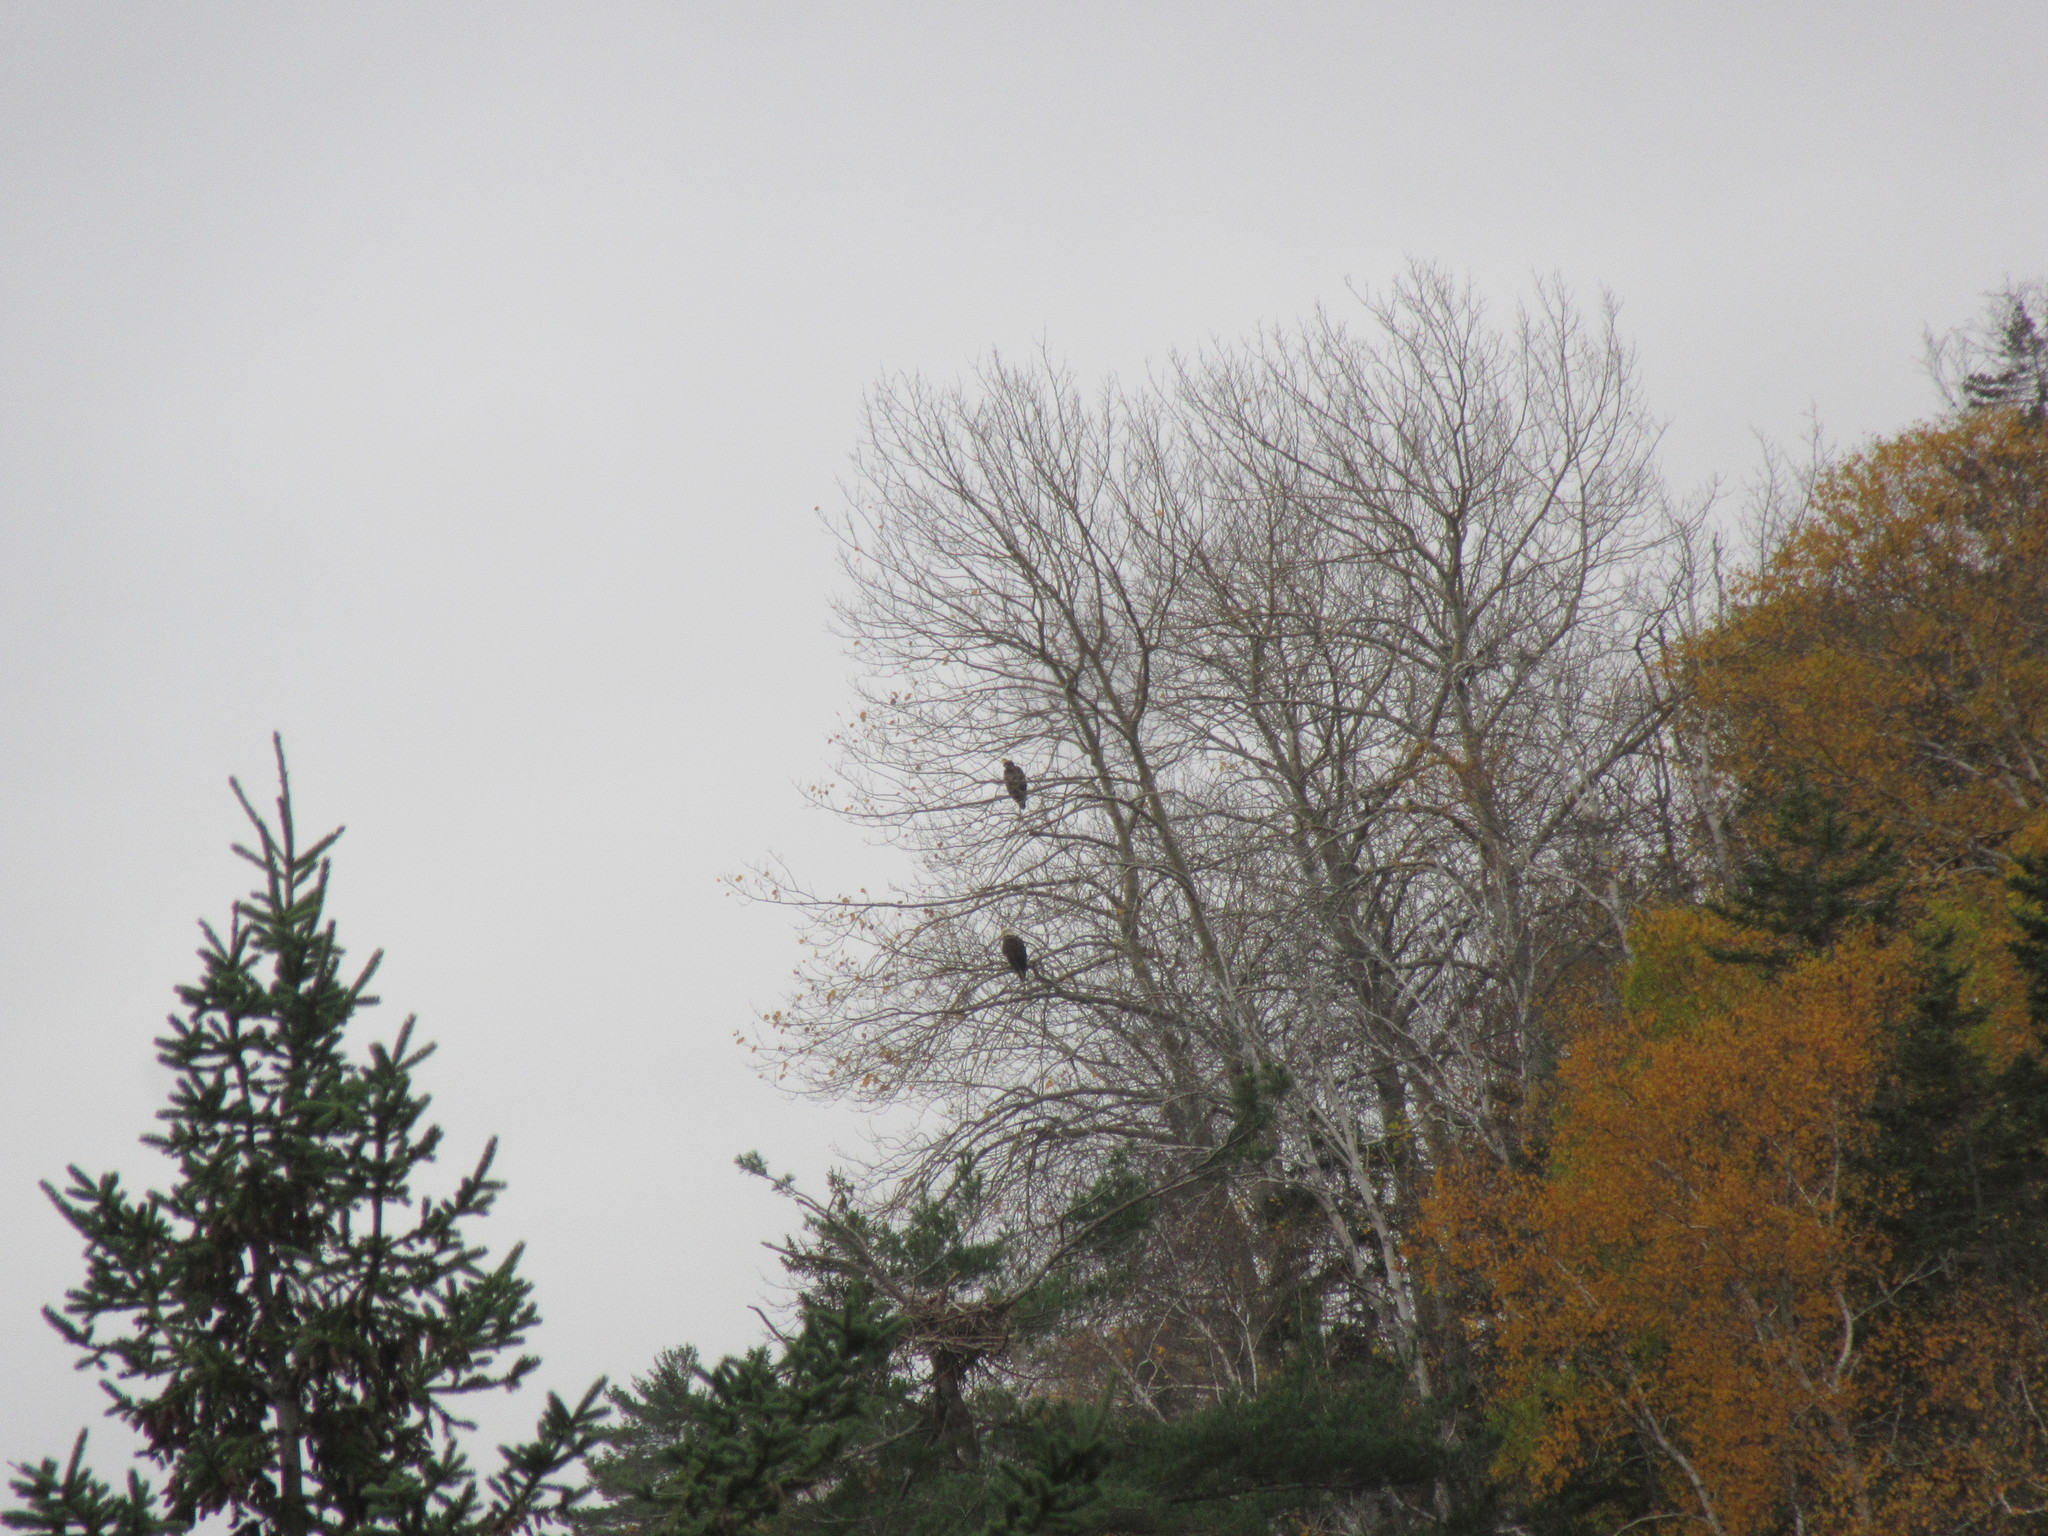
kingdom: Animalia
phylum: Chordata
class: Aves
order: Accipitriformes
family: Accipitridae
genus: Haliaeetus
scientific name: Haliaeetus leucocephalus
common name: Bald eagle
